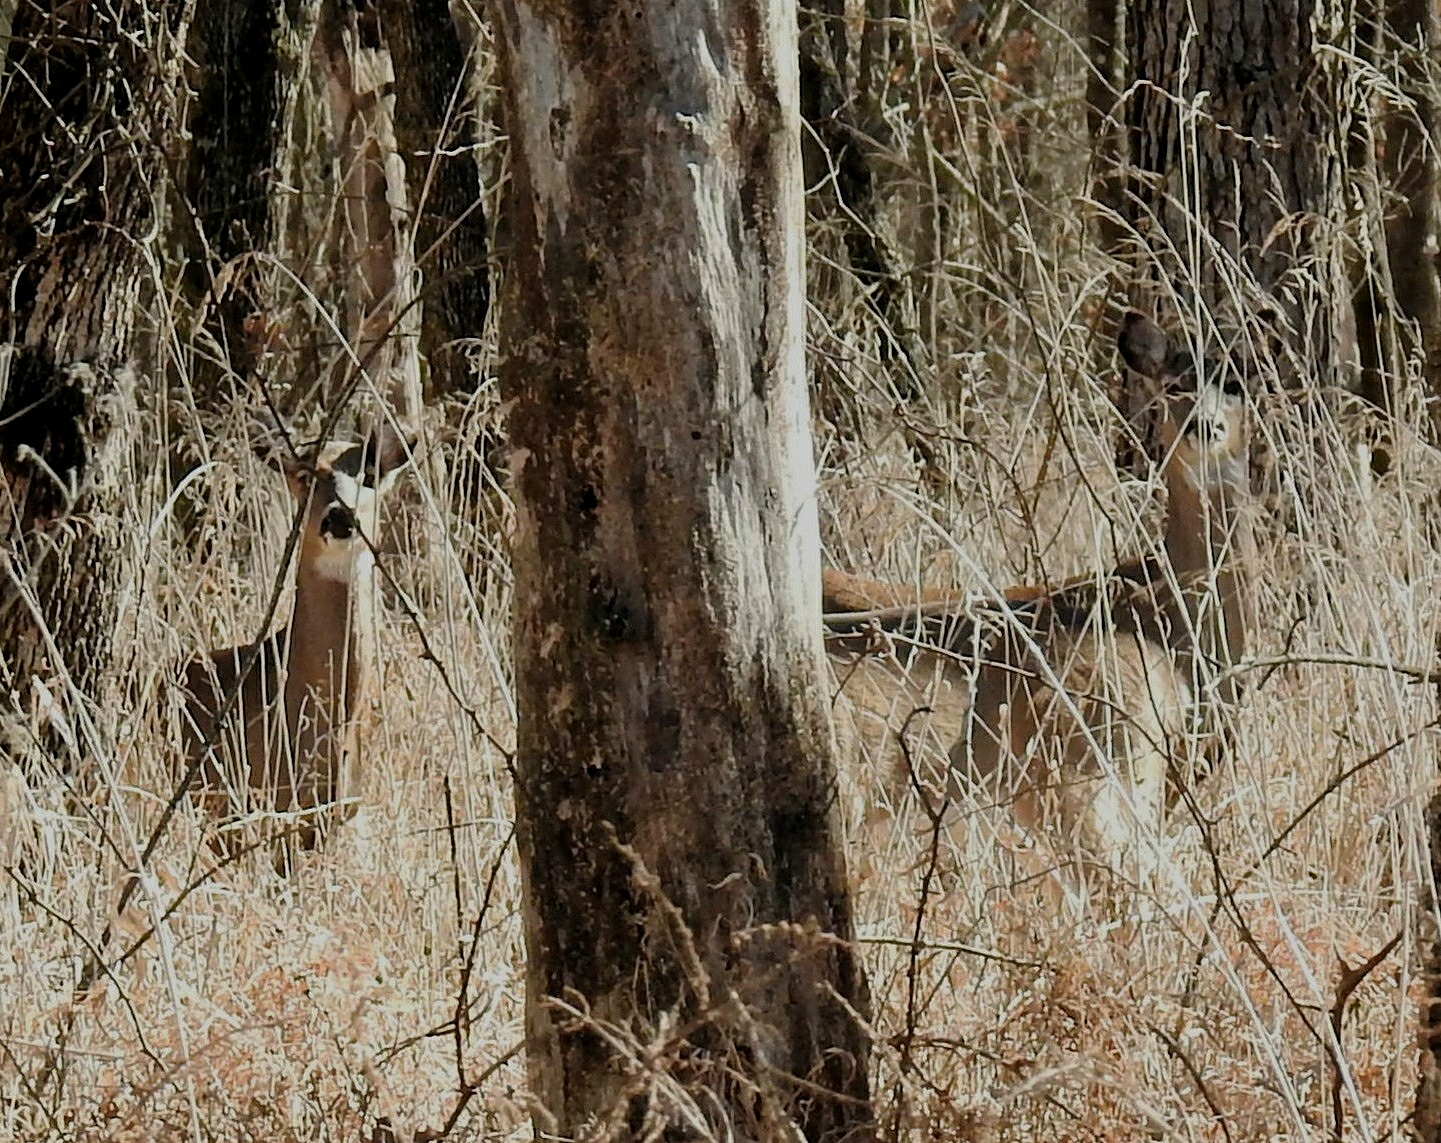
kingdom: Animalia
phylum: Chordata
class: Mammalia
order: Artiodactyla
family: Cervidae
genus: Odocoileus
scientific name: Odocoileus virginianus
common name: White-tailed deer
